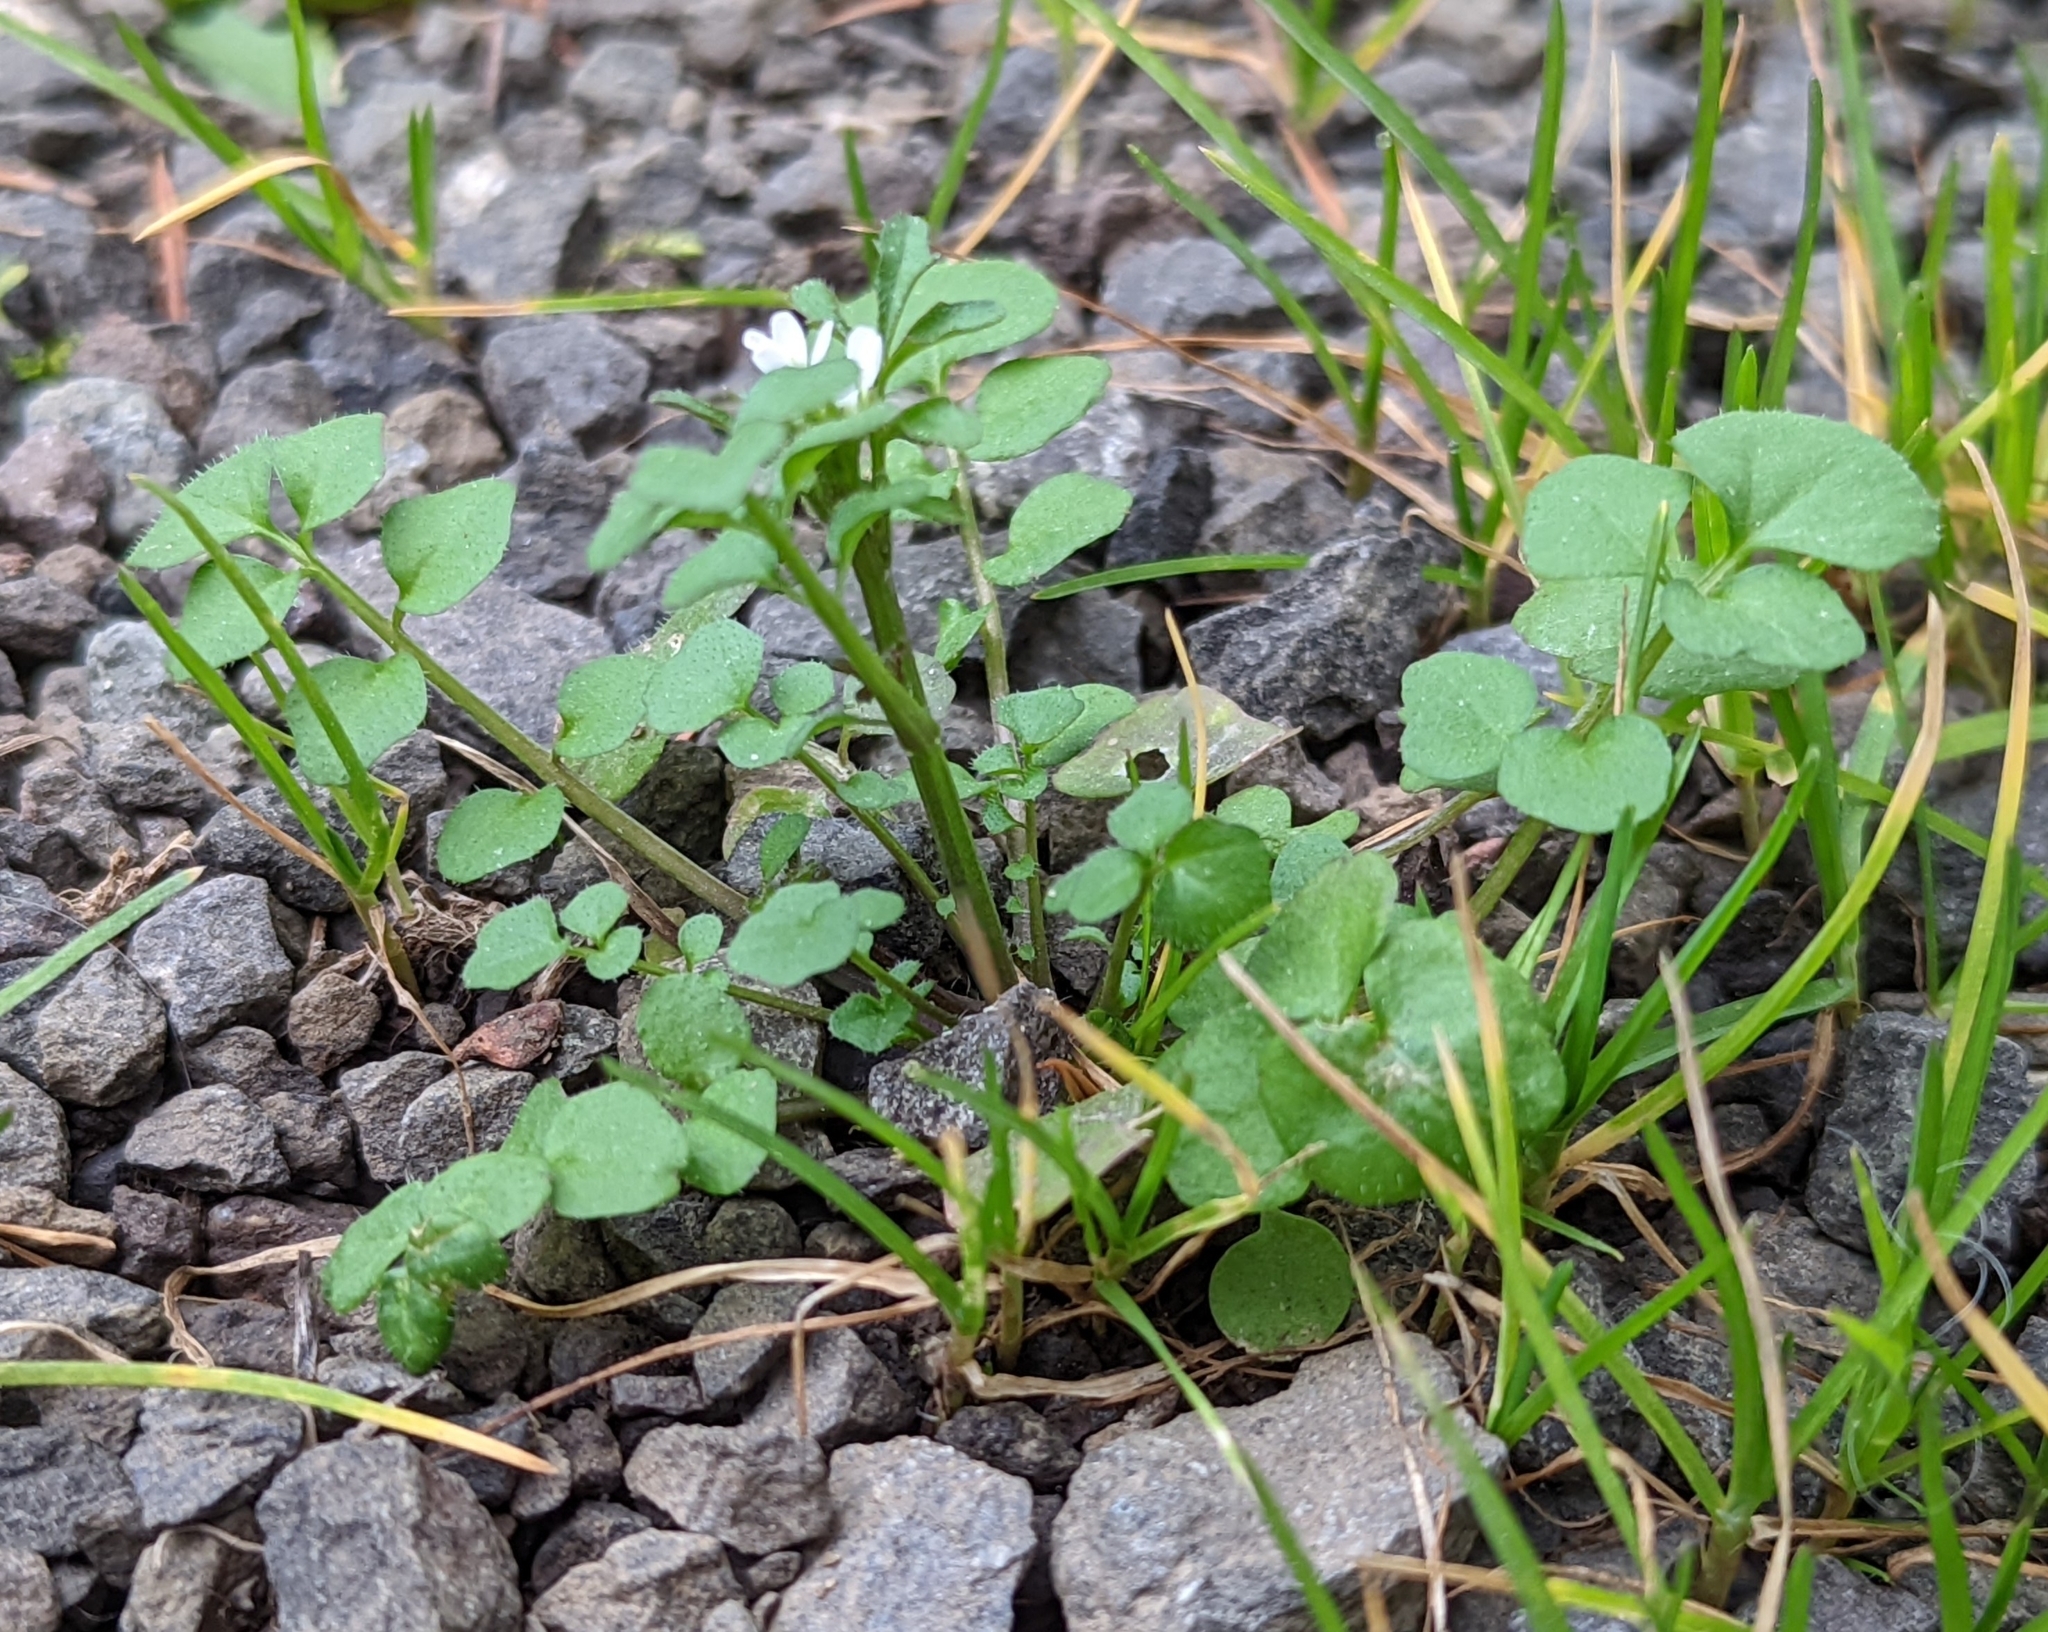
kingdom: Plantae
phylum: Tracheophyta
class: Magnoliopsida
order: Brassicales
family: Brassicaceae
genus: Cardamine
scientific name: Cardamine hirsuta
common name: Hairy bittercress
